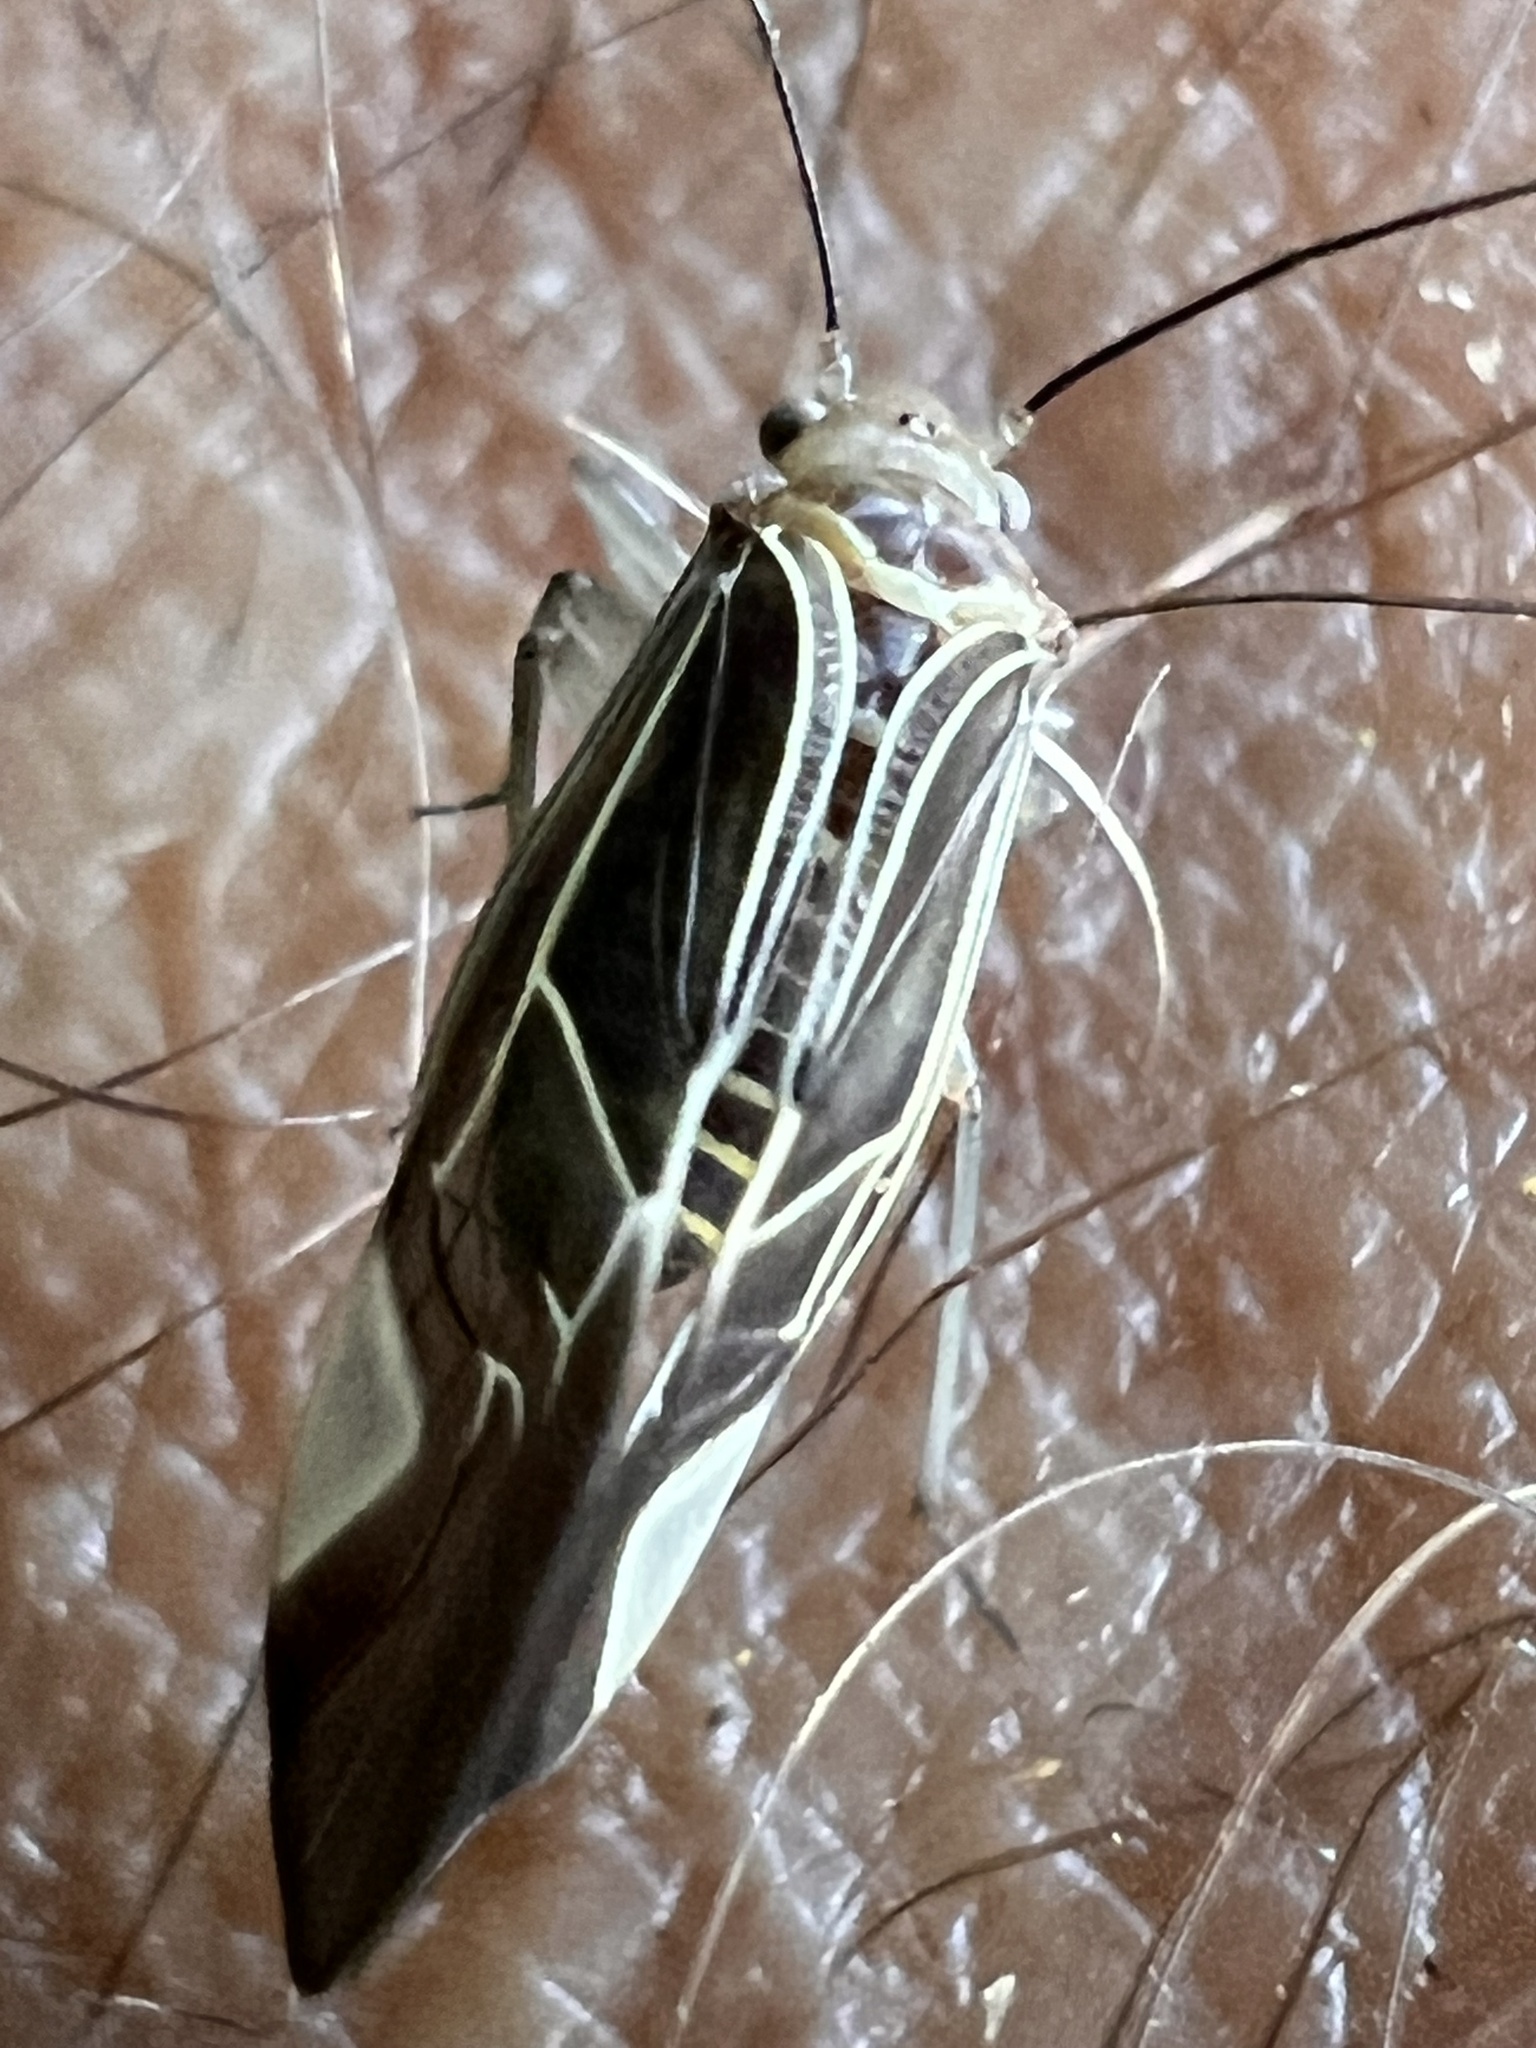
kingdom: Animalia
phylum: Arthropoda
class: Insecta
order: Psocodea
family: Psocidae
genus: Cerastipsocus
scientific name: Cerastipsocus venosus
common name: Tree cattle
